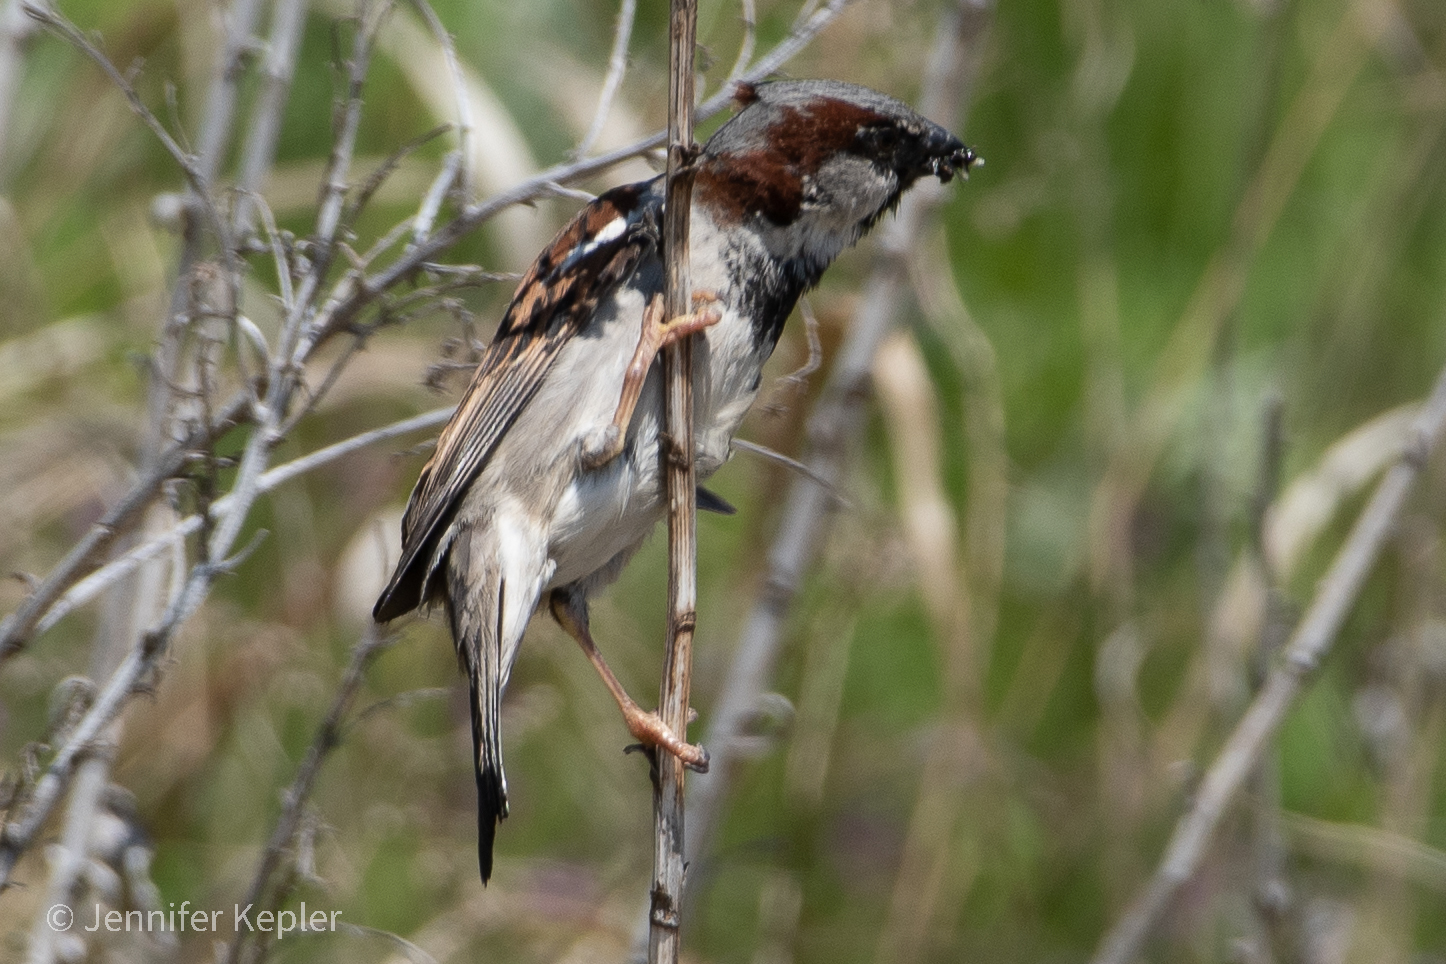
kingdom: Animalia
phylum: Chordata
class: Aves
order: Passeriformes
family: Passeridae
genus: Passer
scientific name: Passer domesticus
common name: House sparrow
